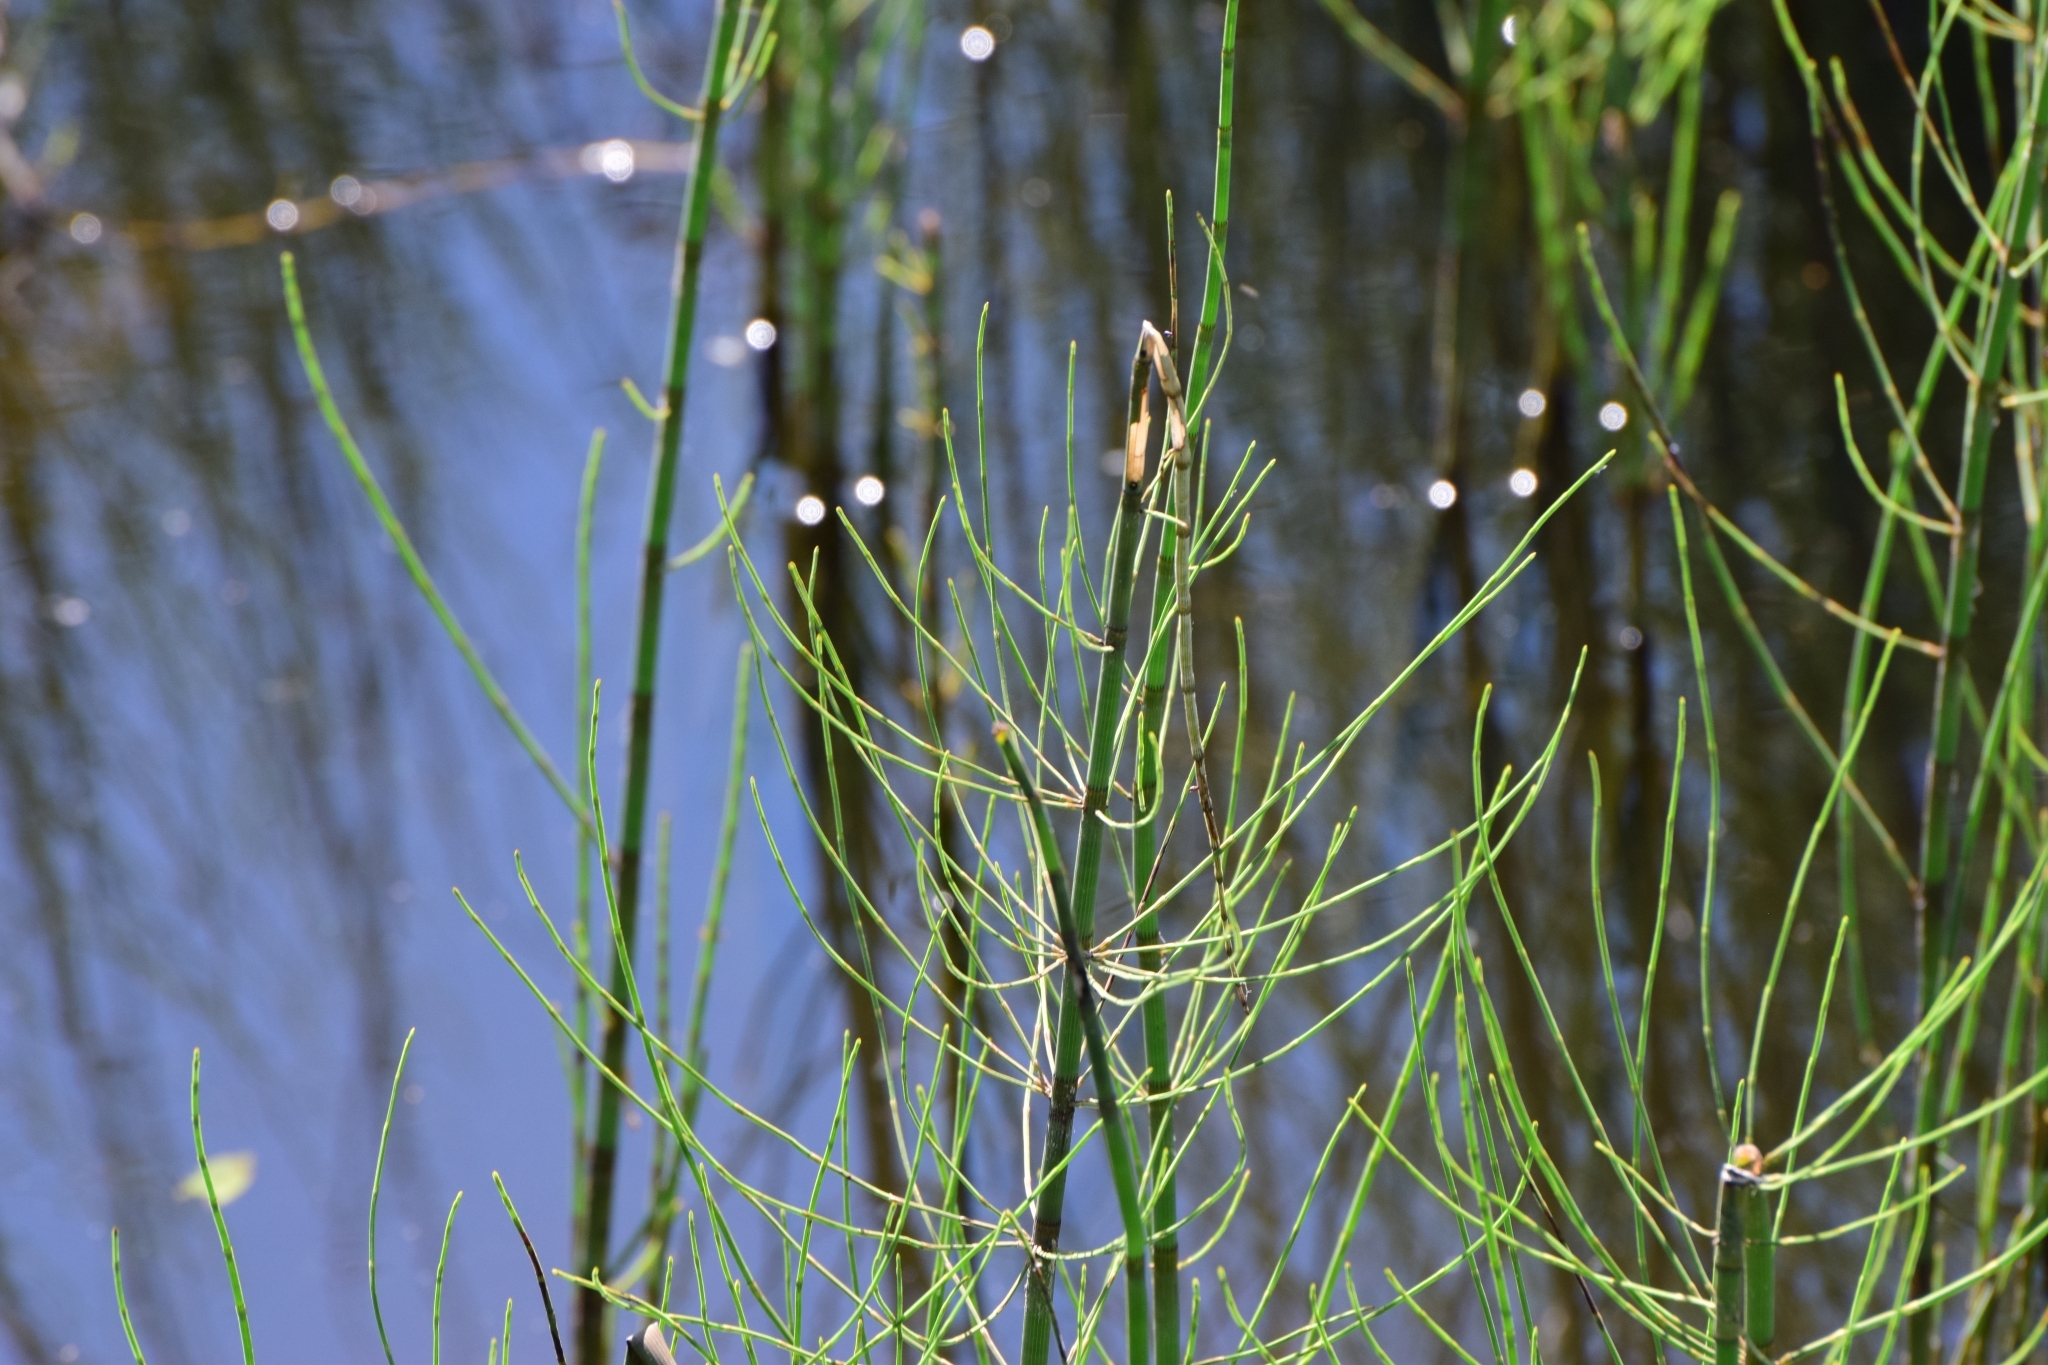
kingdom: Plantae
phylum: Tracheophyta
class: Polypodiopsida
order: Equisetales
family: Equisetaceae
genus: Equisetum
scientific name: Equisetum fluviatile
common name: Water horsetail
